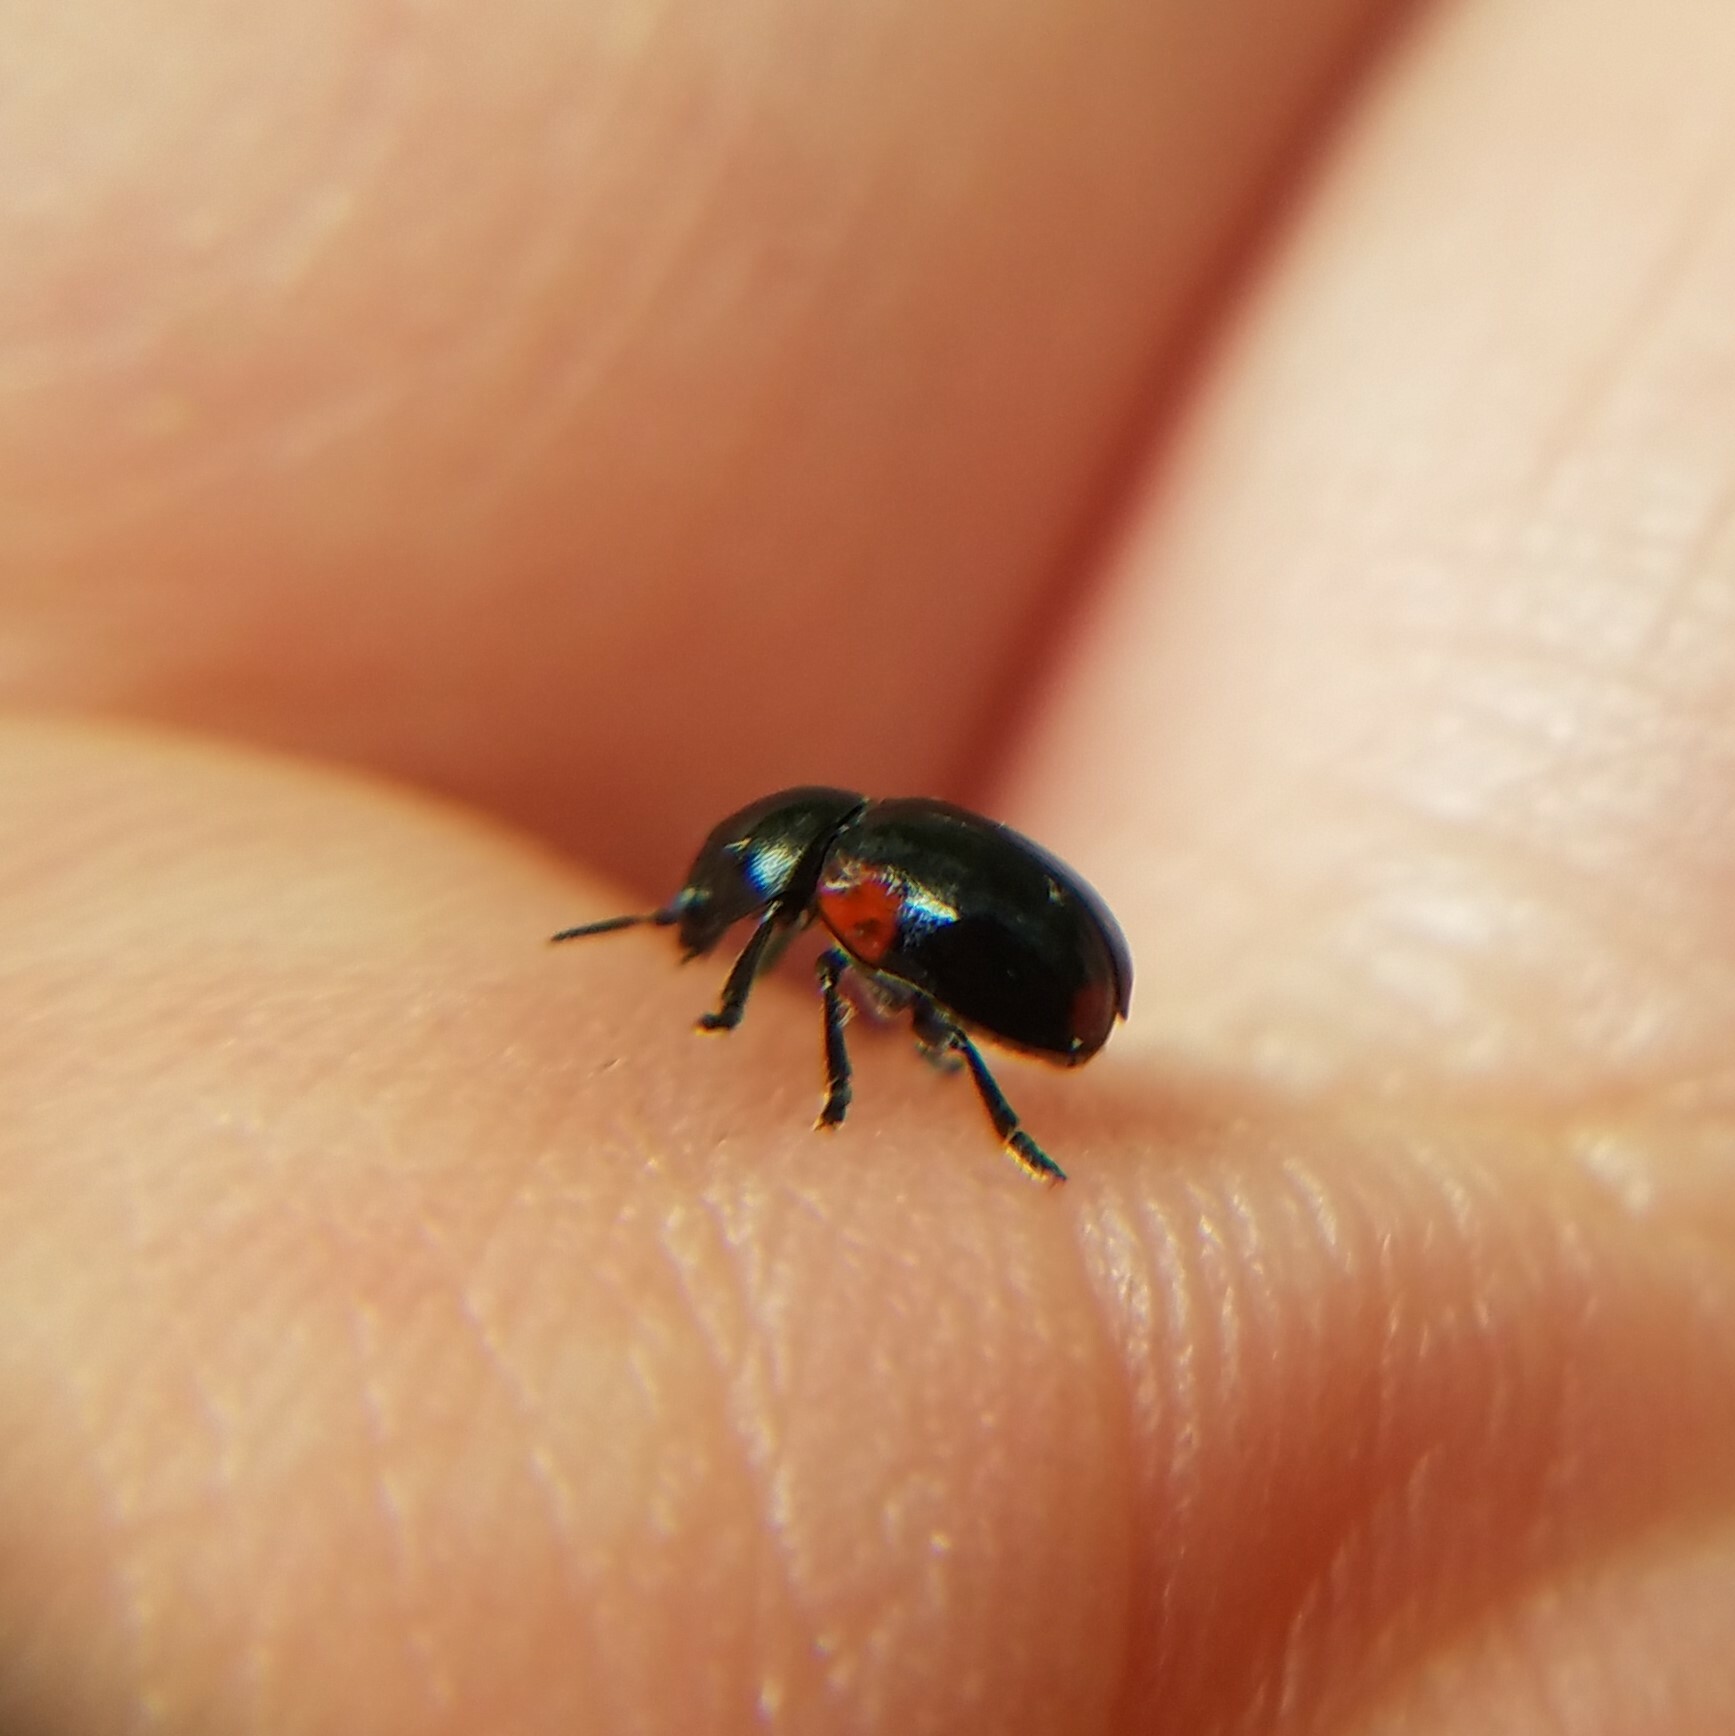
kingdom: Animalia
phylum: Arthropoda
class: Insecta
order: Coleoptera
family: Chrysomelidae
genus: Babia
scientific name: Babia quadriguttata
